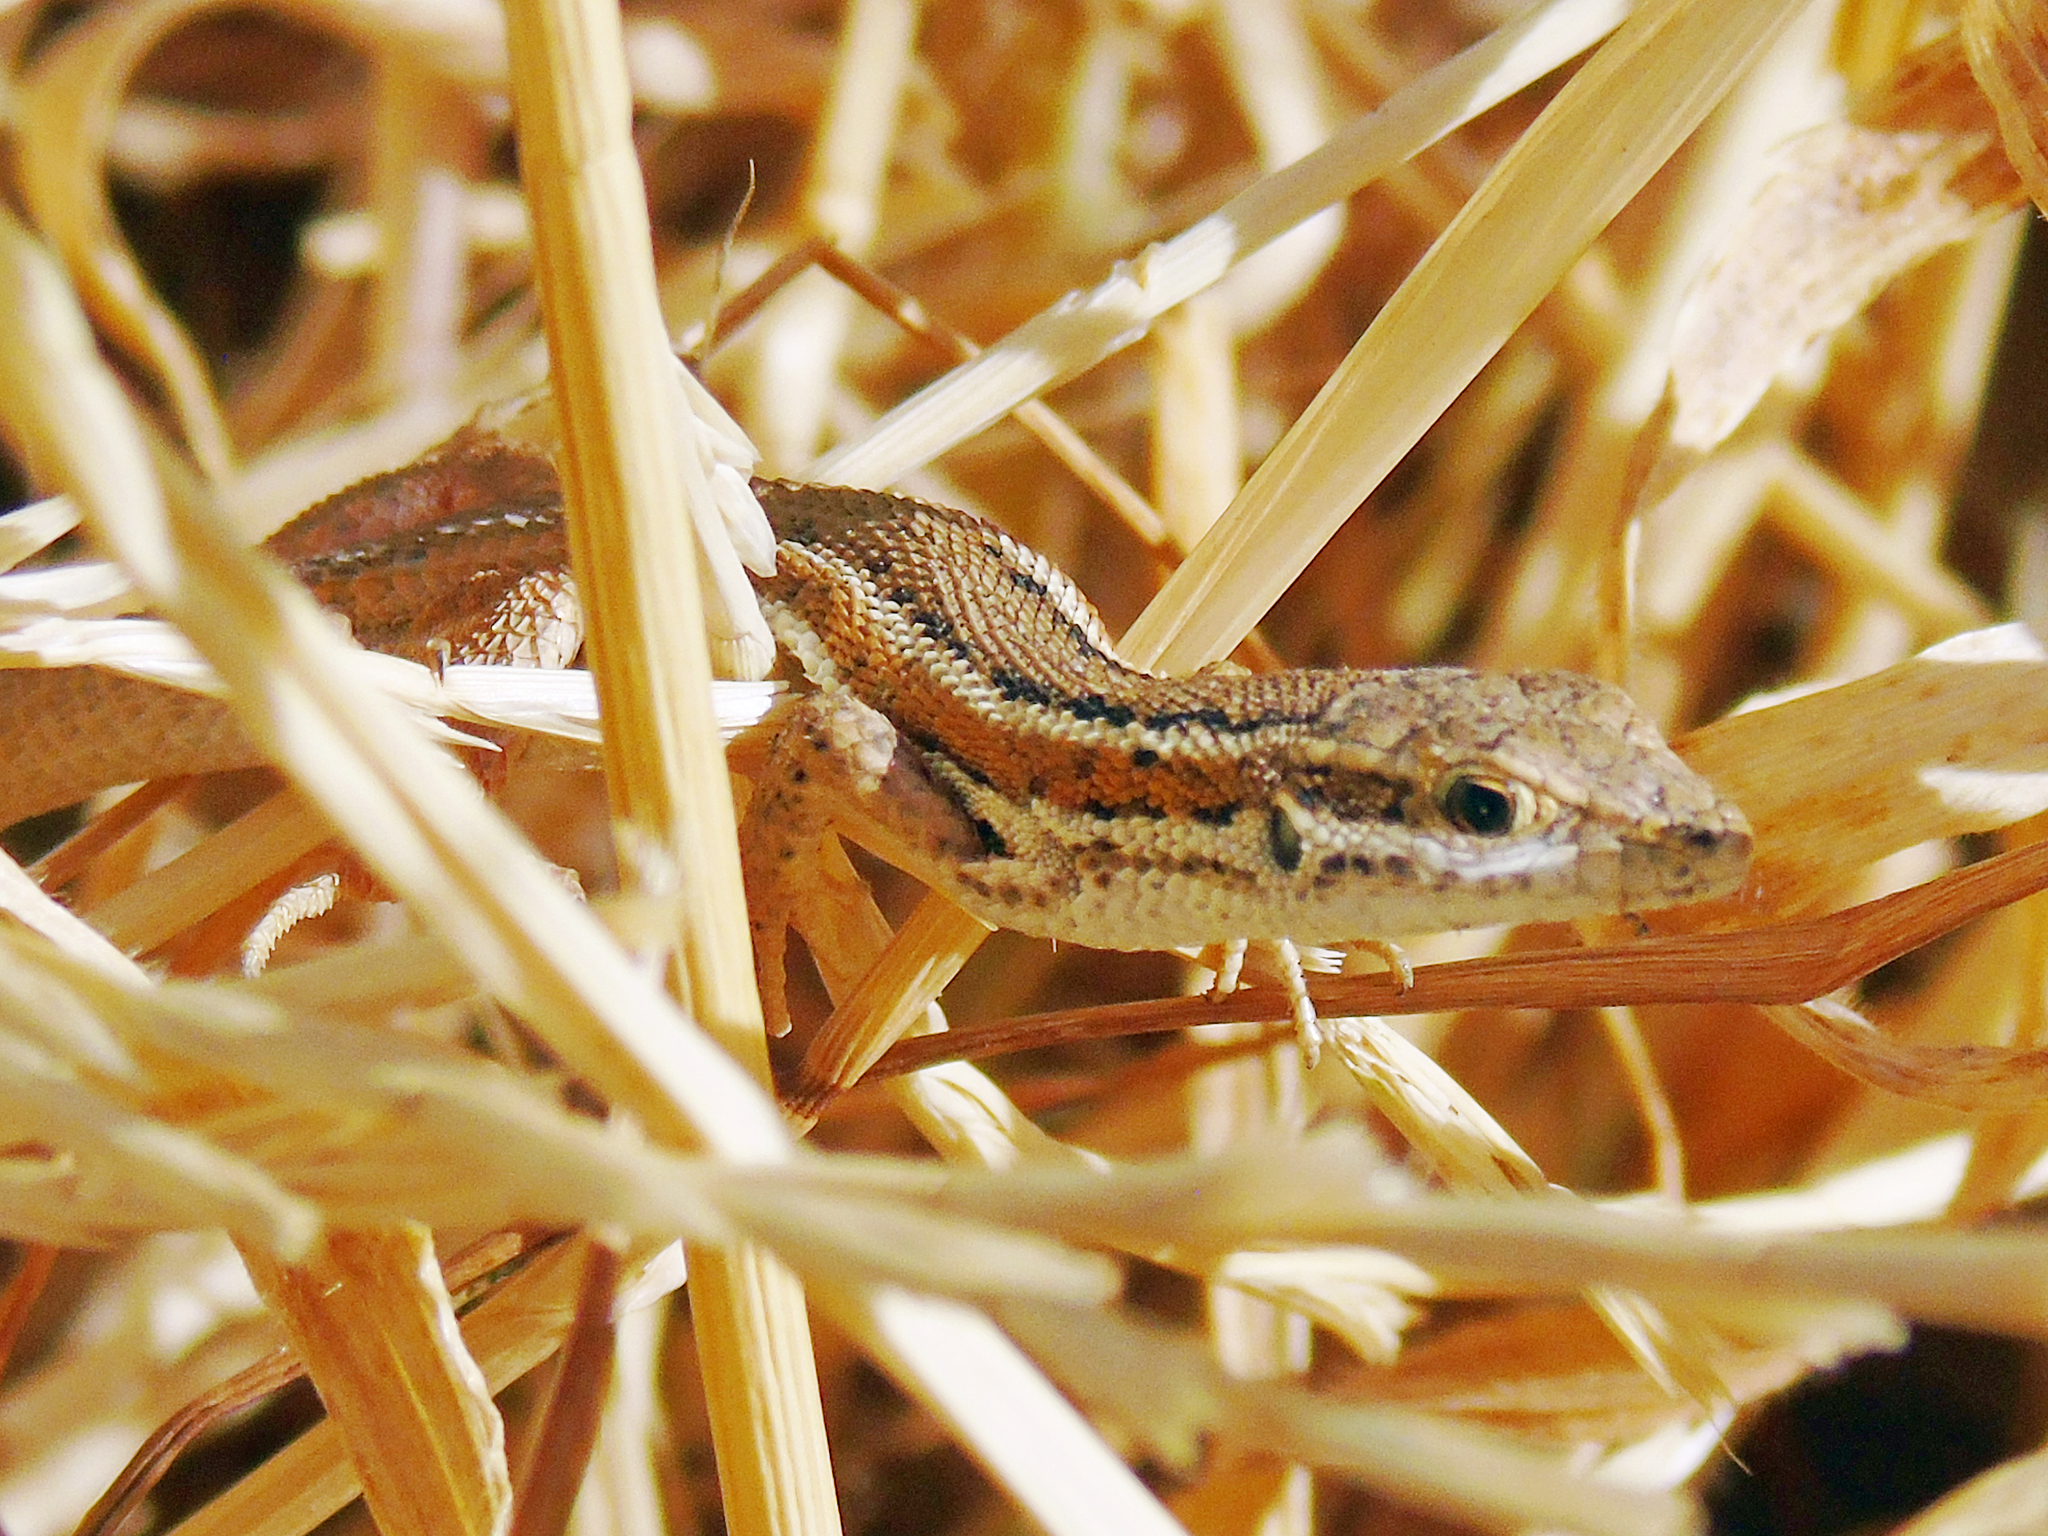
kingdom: Animalia
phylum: Chordata
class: Squamata
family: Lacertidae
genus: Ophisops
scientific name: Ophisops elegans
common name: Snake-eyed lizard
